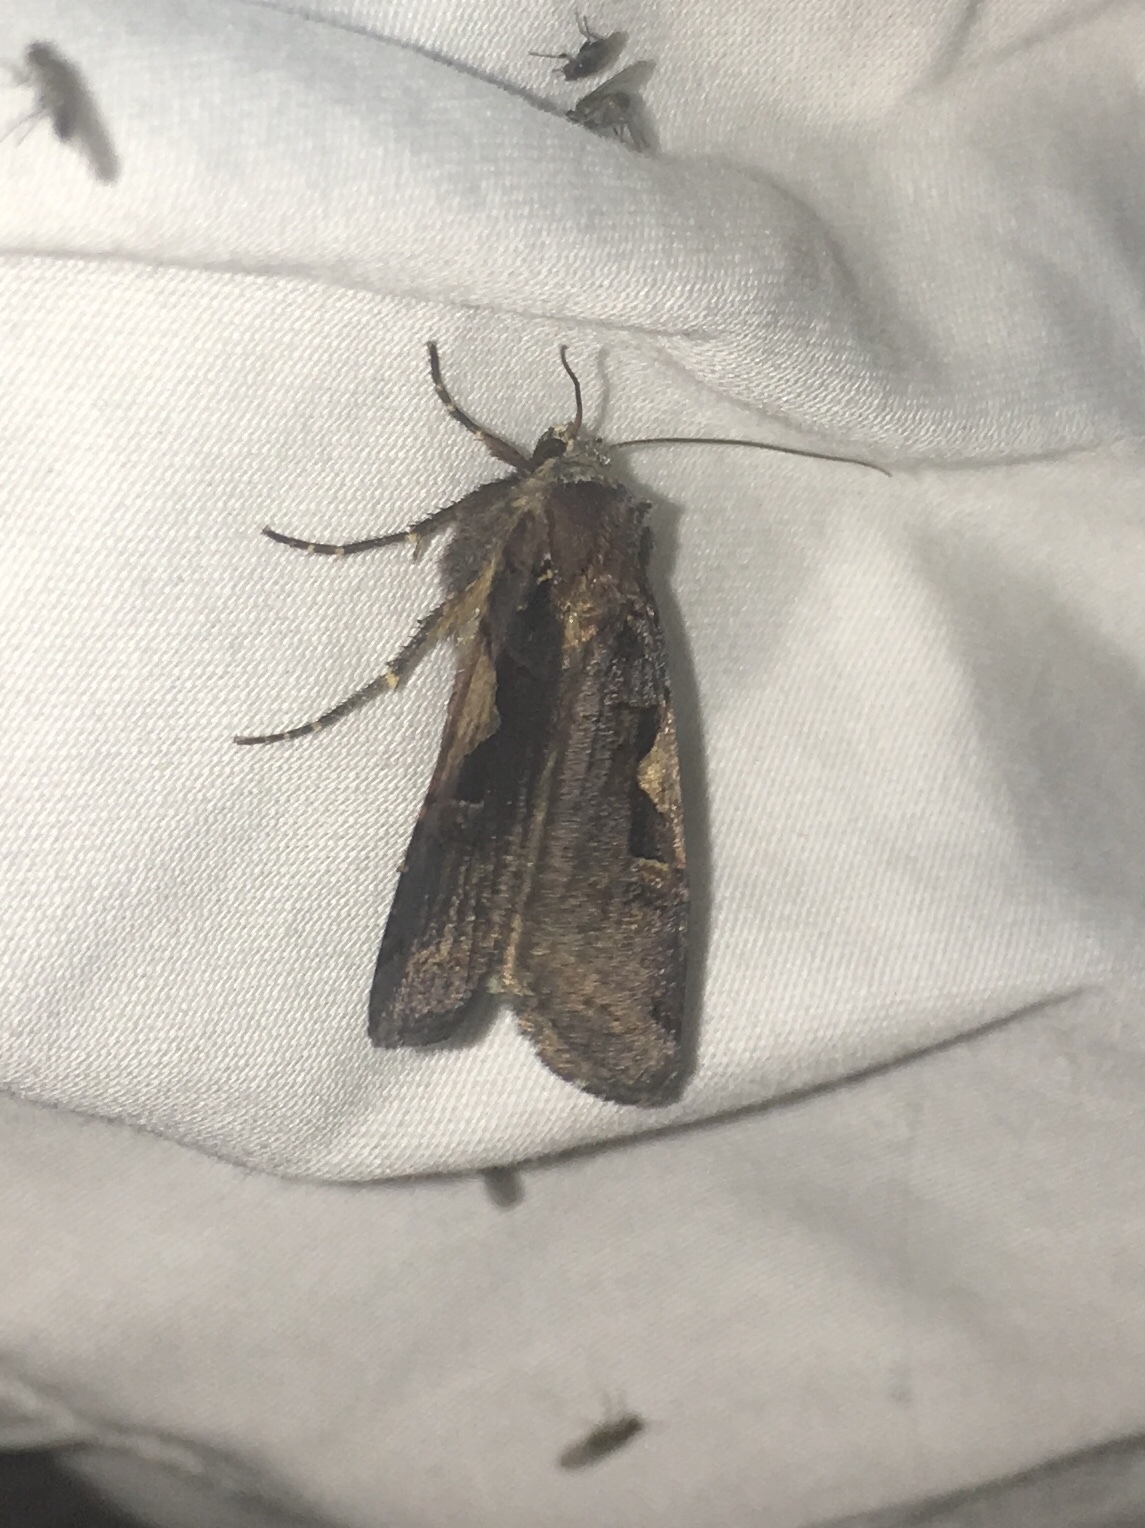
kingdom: Animalia
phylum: Arthropoda
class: Insecta
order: Lepidoptera
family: Noctuidae
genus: Xestia
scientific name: Xestia c-nigrum
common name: Setaceous hebrew character
